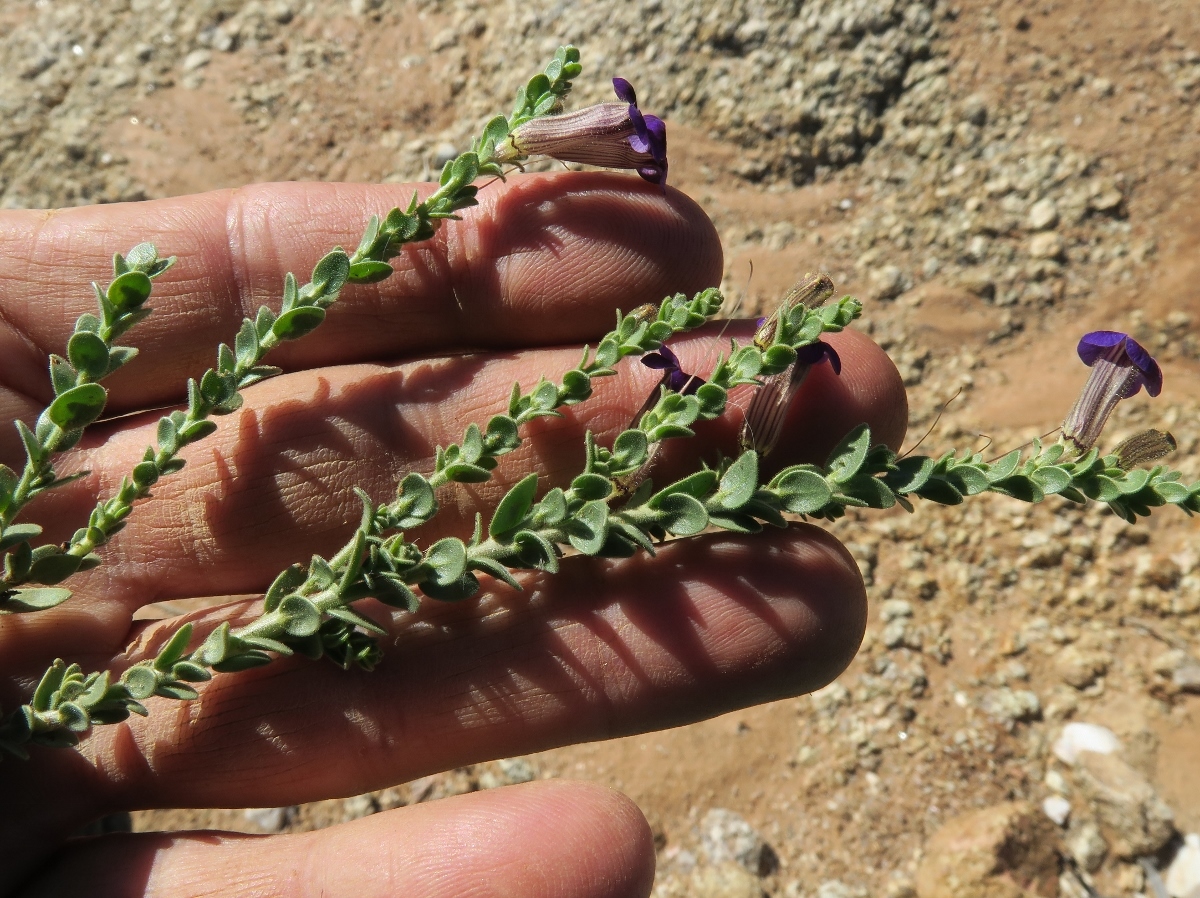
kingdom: Plantae
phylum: Tracheophyta
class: Magnoliopsida
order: Lamiales
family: Scrophulariaceae
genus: Peliostomum
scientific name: Peliostomum virgatum
